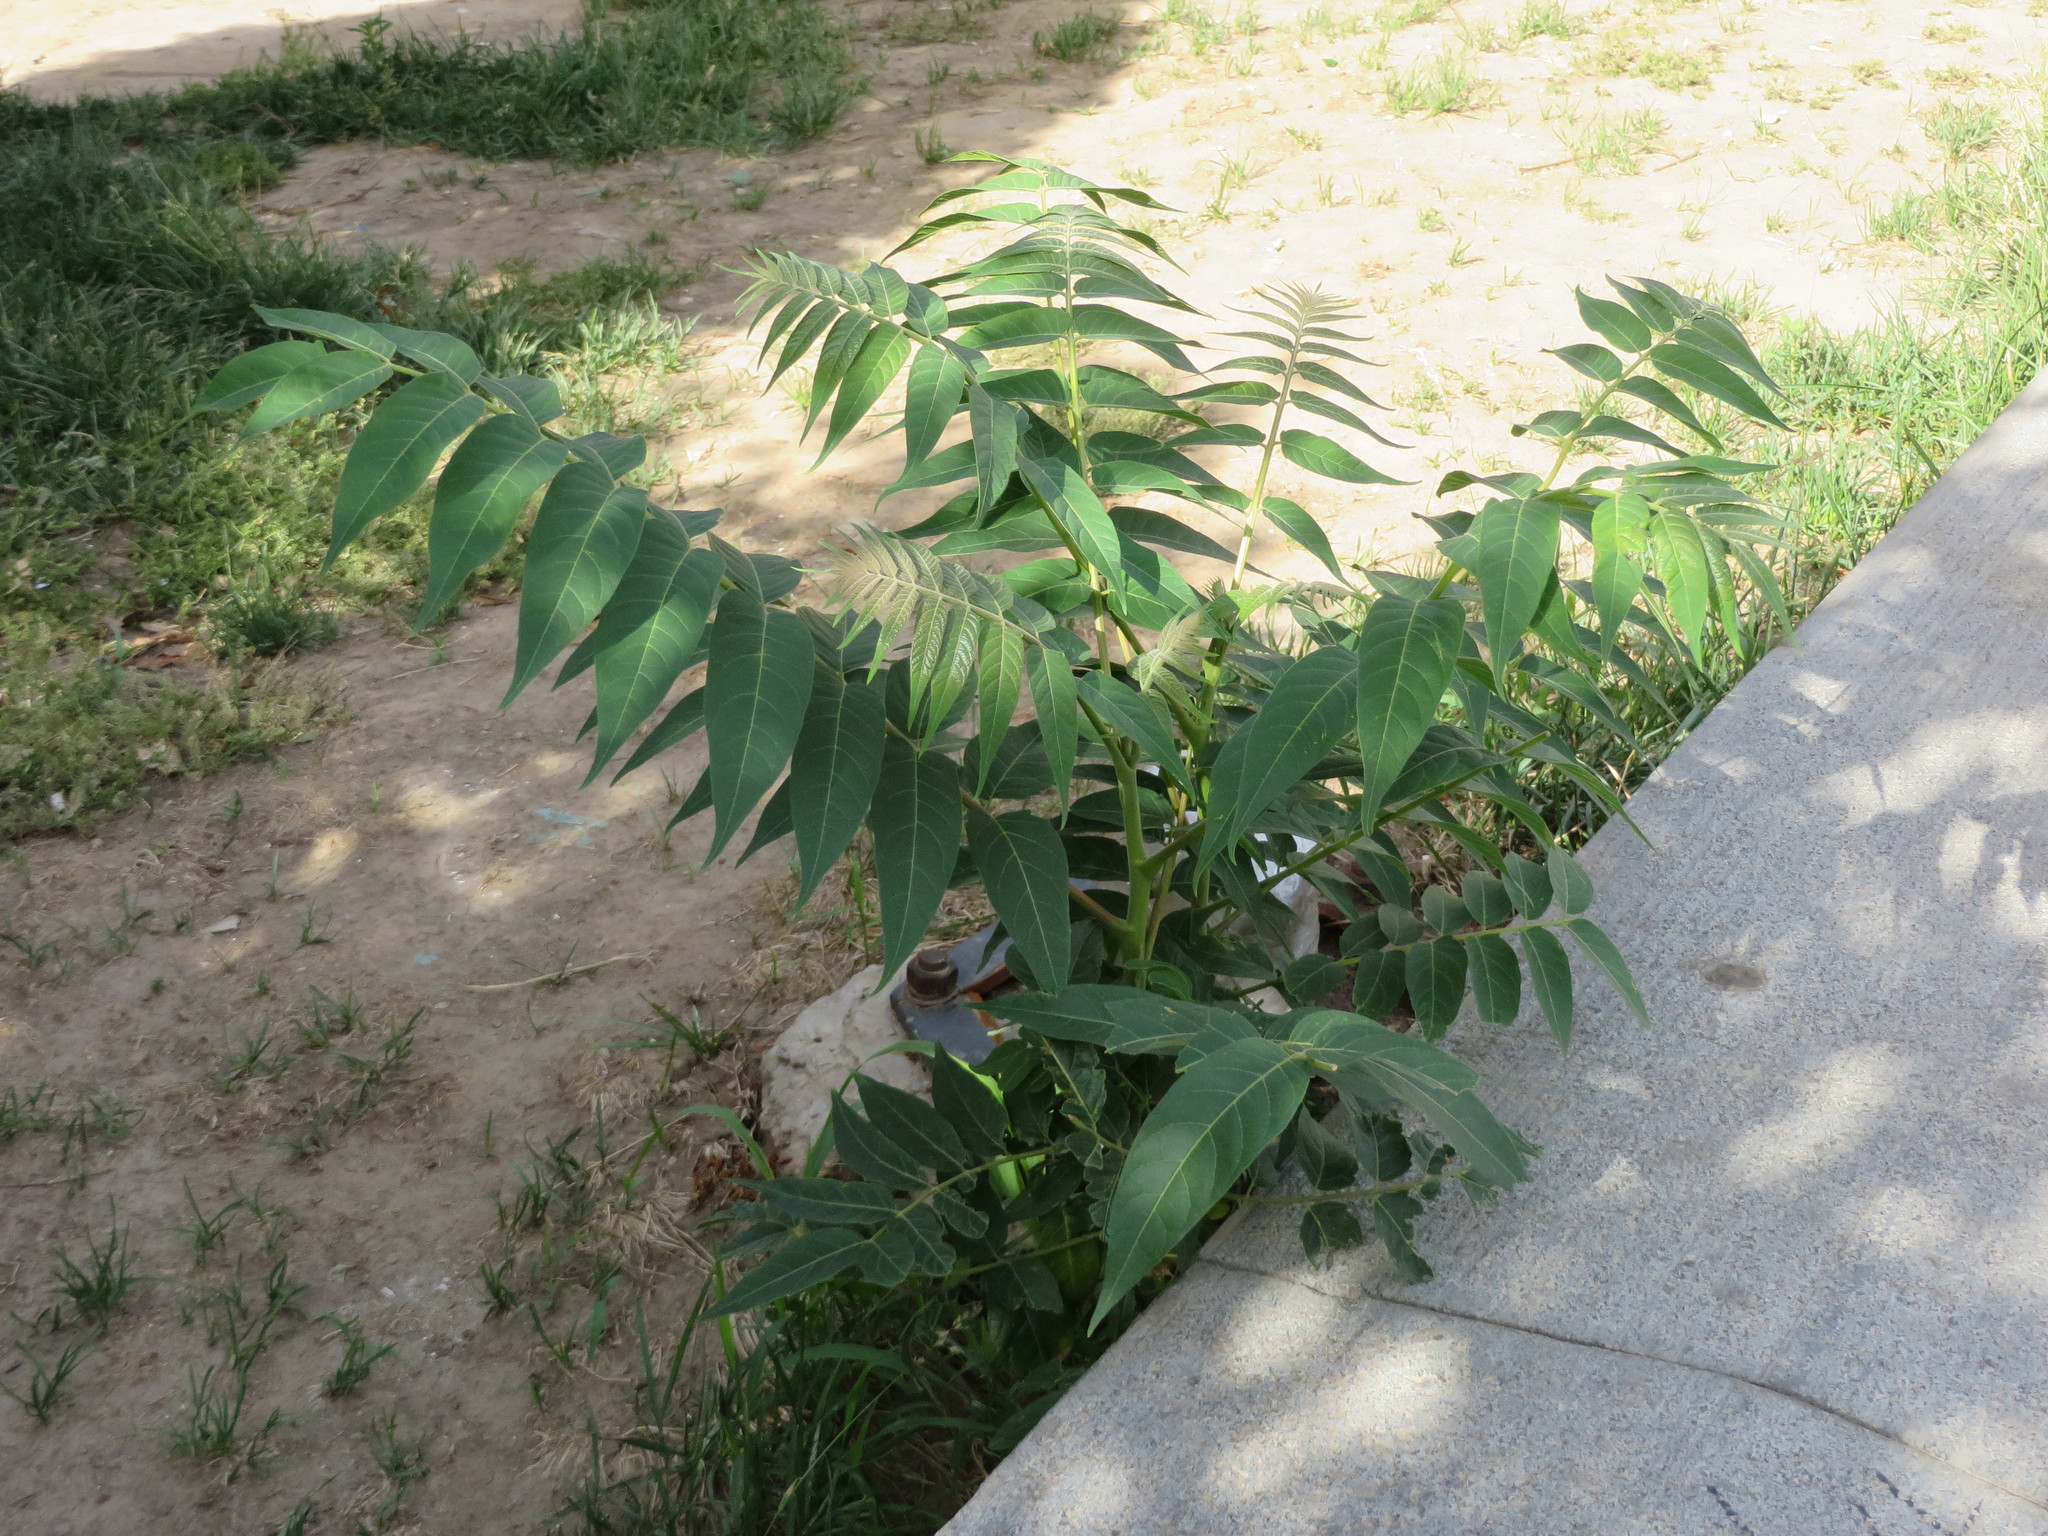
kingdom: Plantae
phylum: Tracheophyta
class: Magnoliopsida
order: Sapindales
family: Simaroubaceae
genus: Ailanthus
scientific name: Ailanthus altissima
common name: Tree-of-heaven
